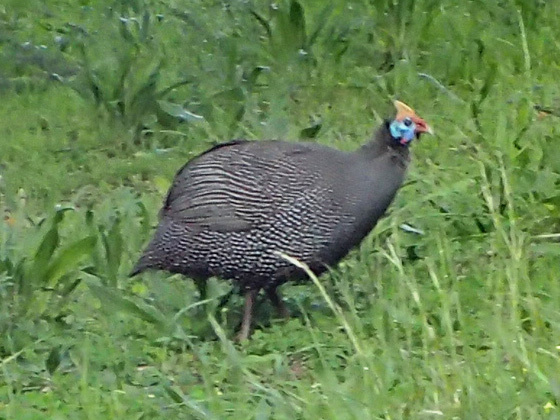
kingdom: Animalia
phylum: Chordata
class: Aves
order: Galliformes
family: Numididae
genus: Numida
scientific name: Numida meleagris
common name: Helmeted guineafowl
